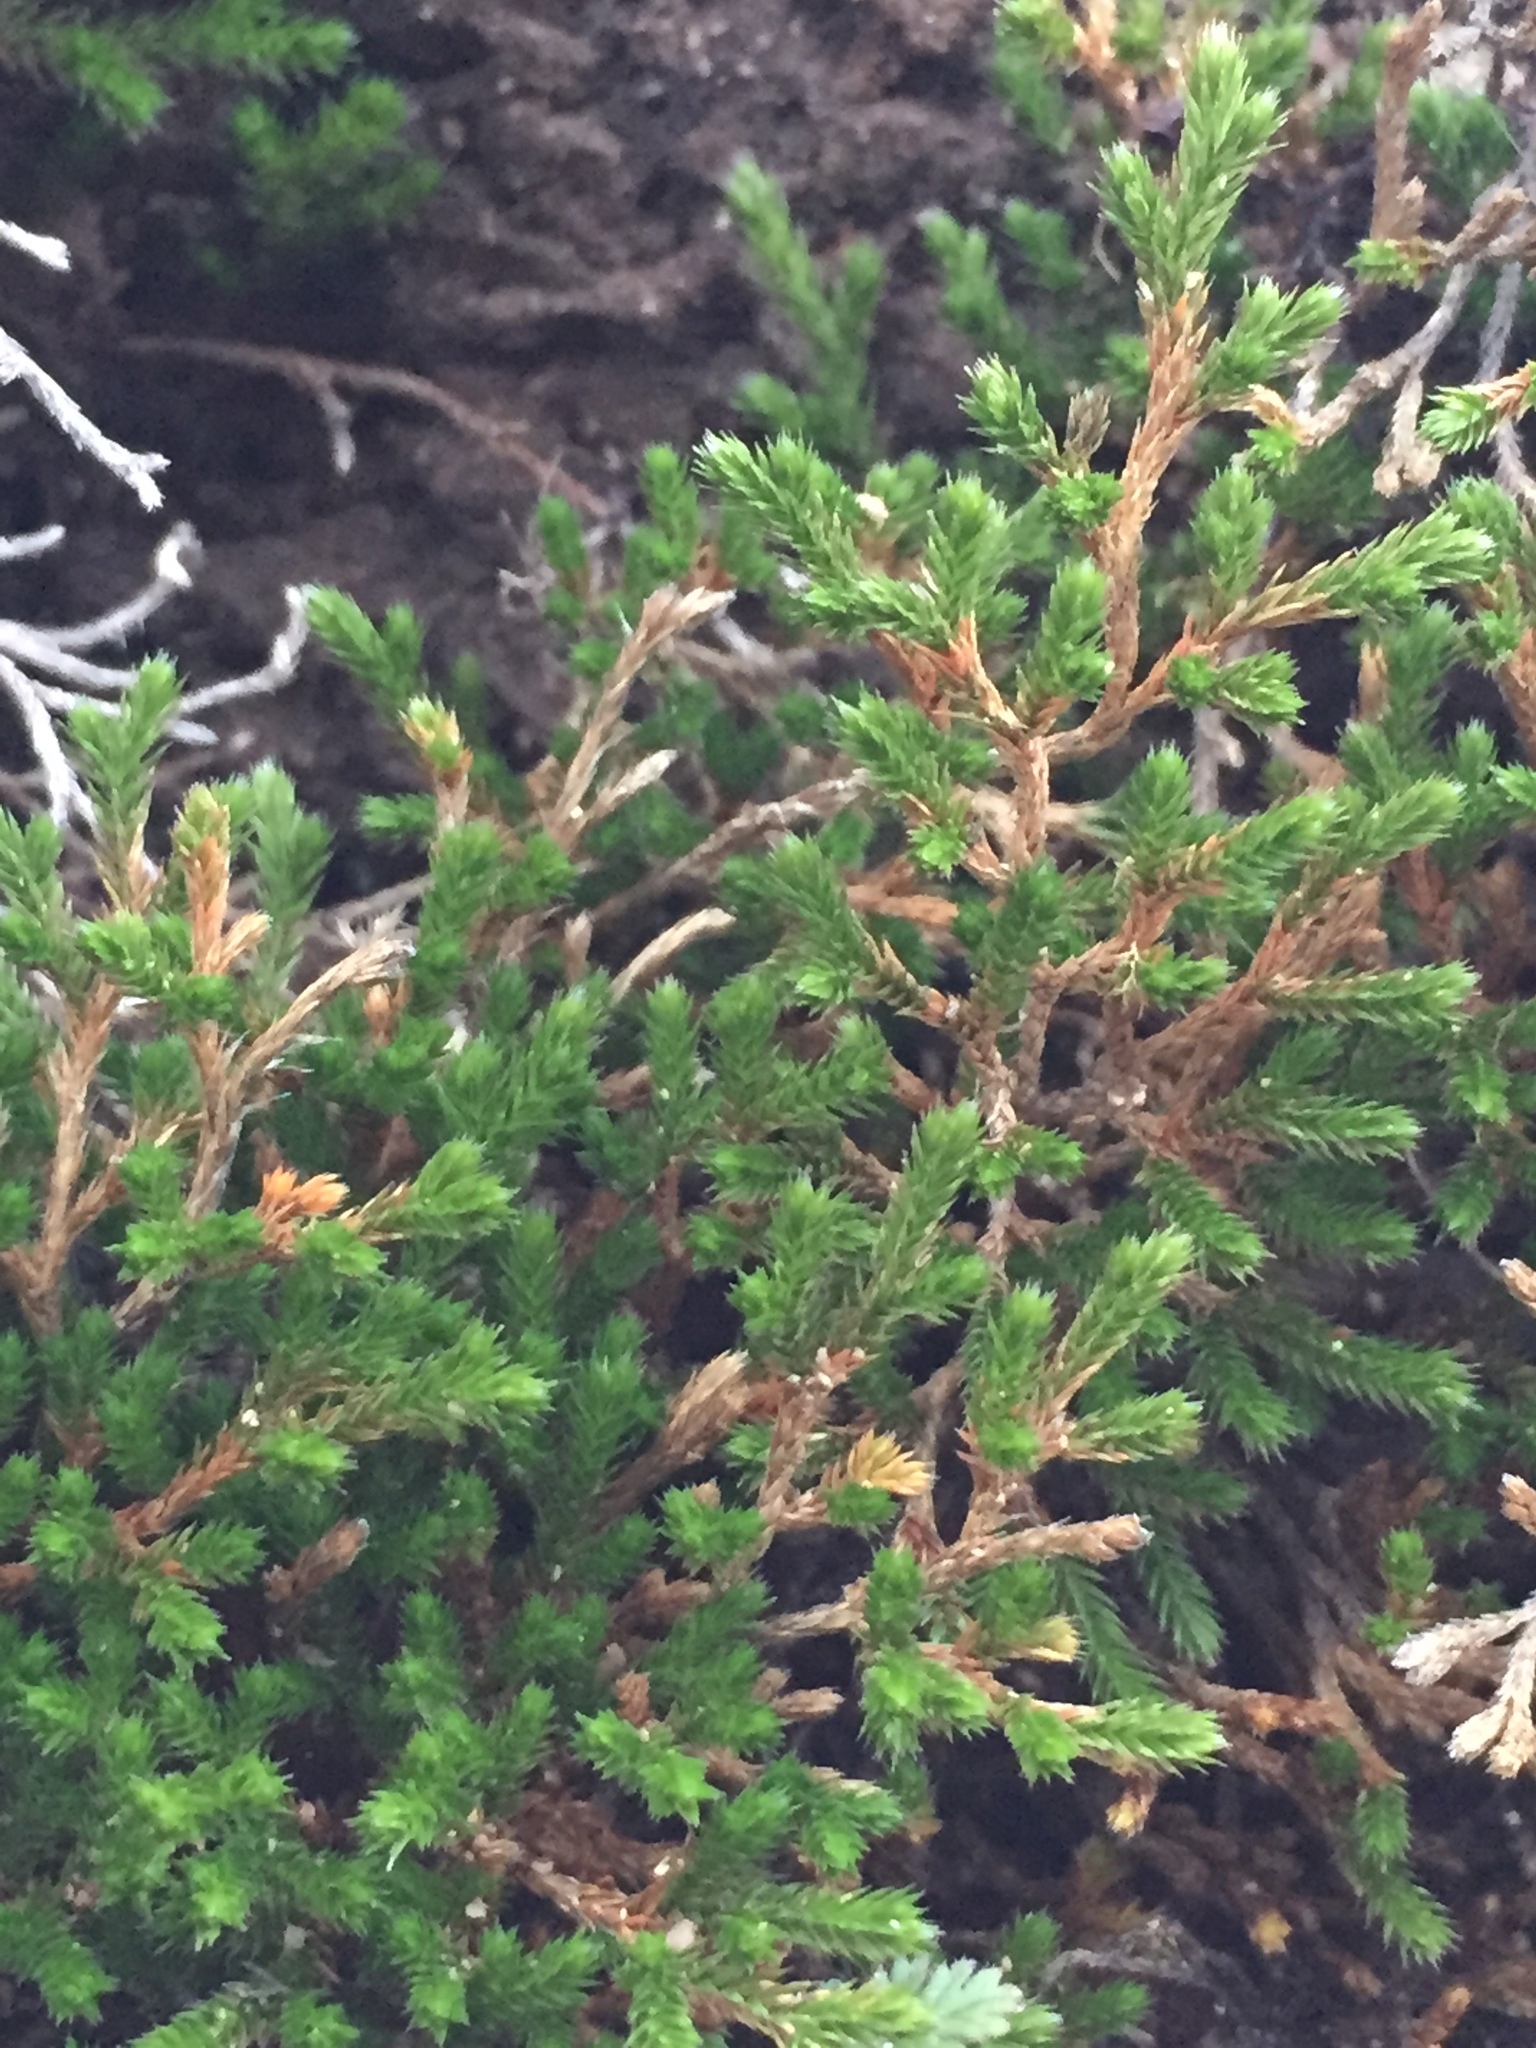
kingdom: Plantae
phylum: Tracheophyta
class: Lycopodiopsida
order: Selaginellales
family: Selaginellaceae
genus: Selaginella
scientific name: Selaginella bigelovii
